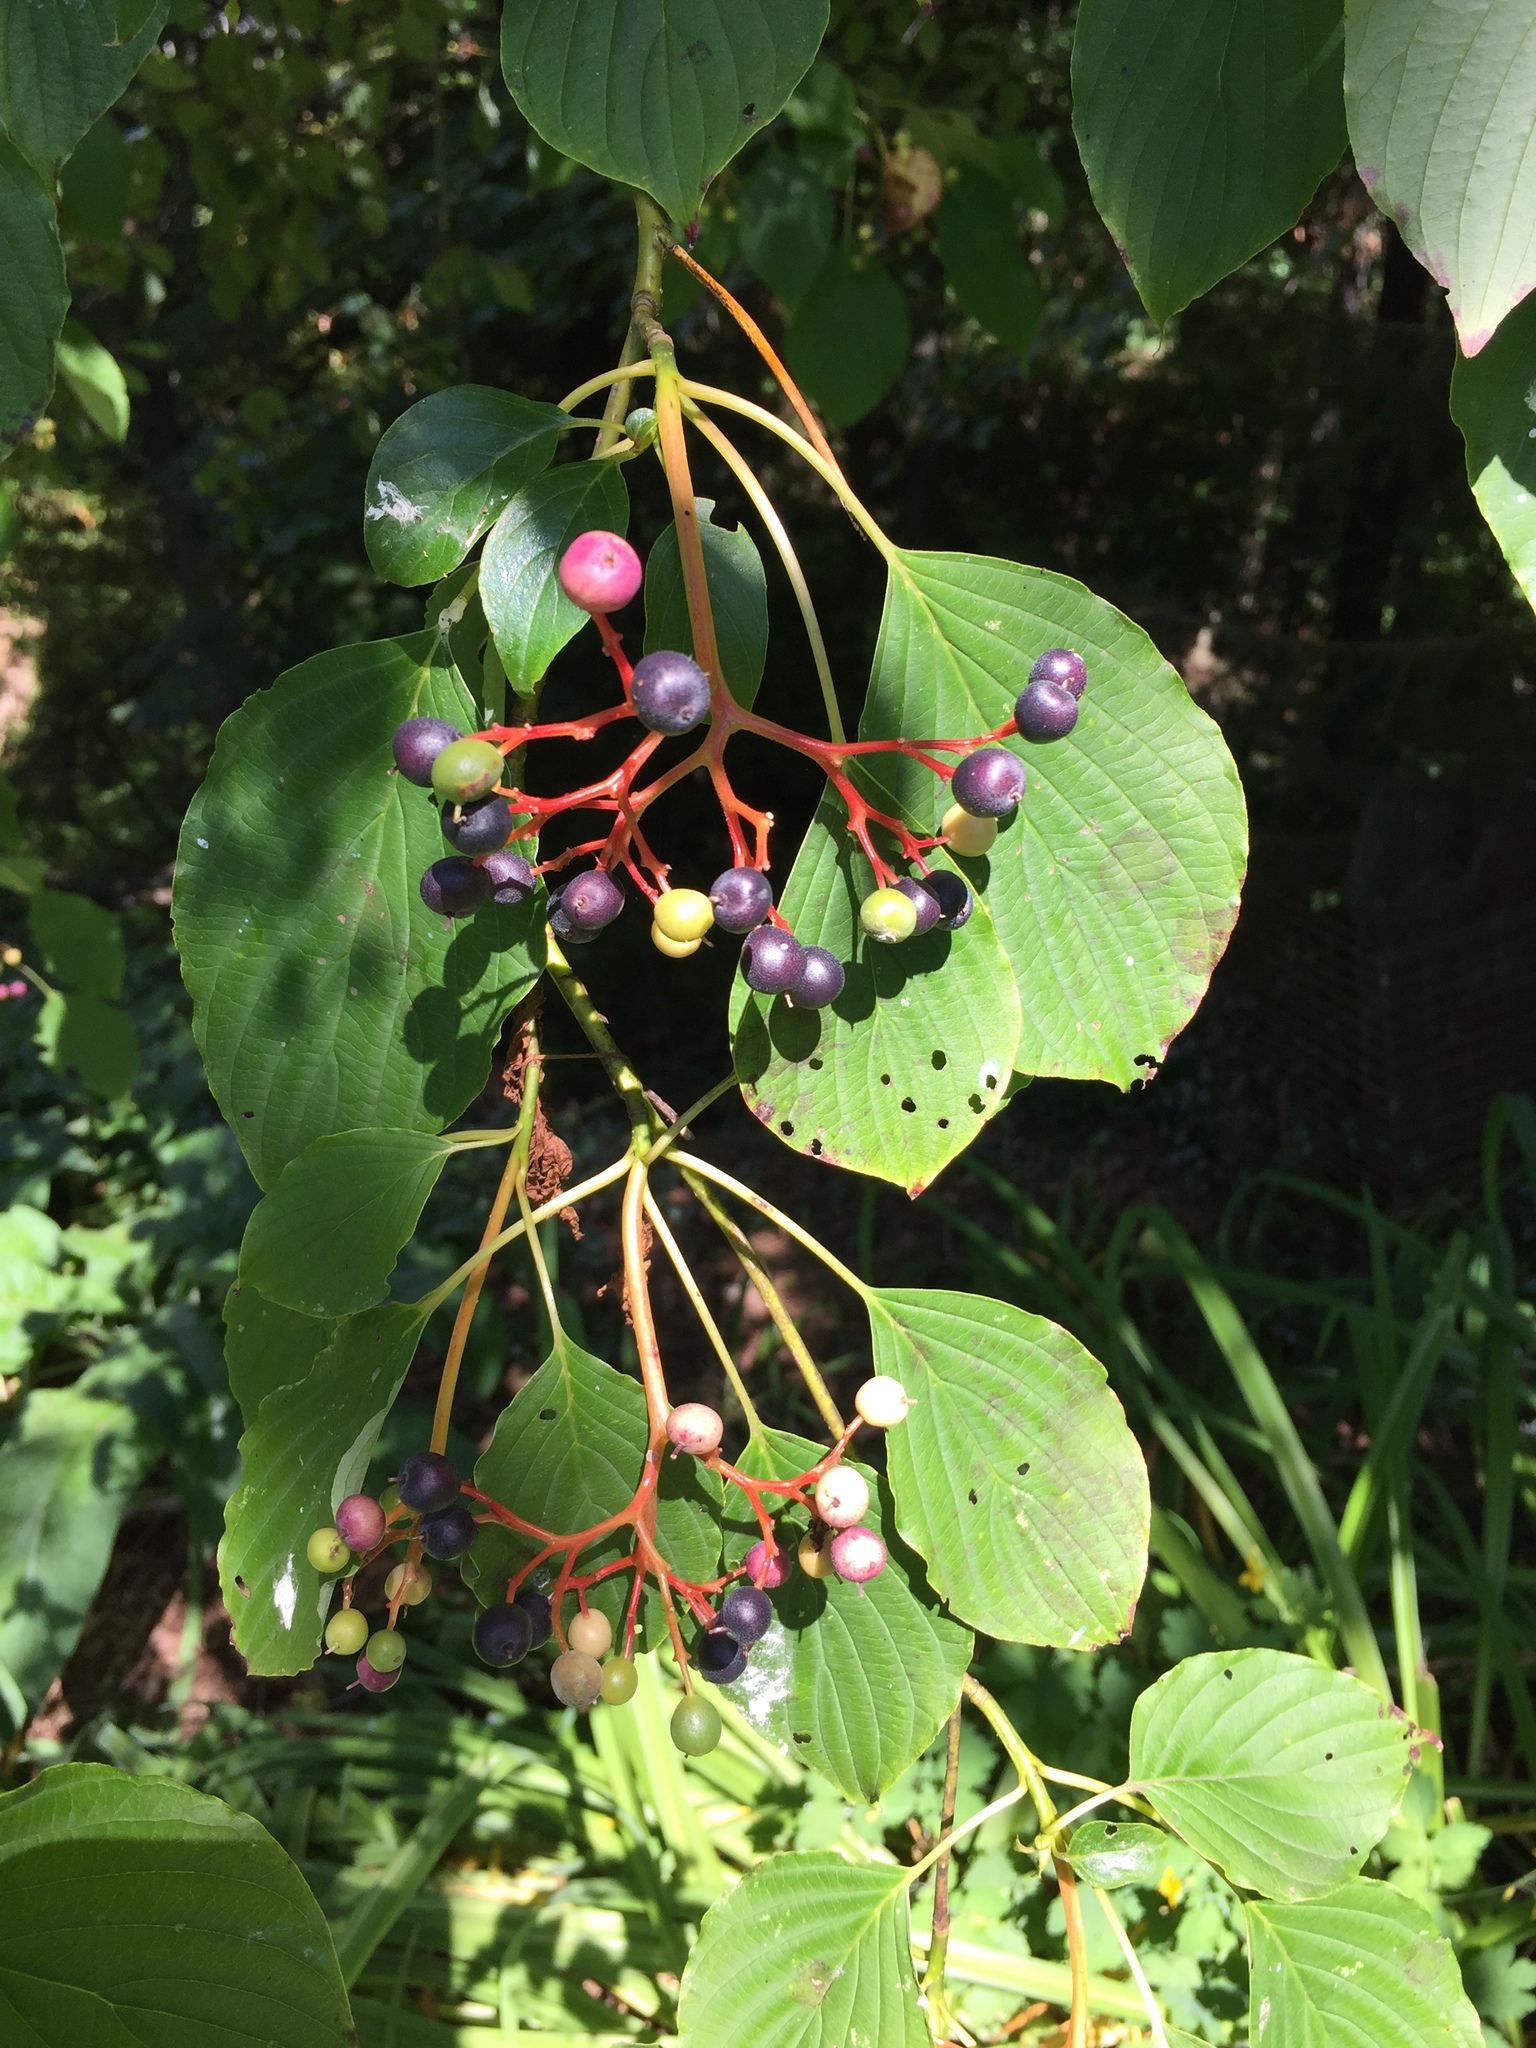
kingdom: Plantae
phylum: Tracheophyta
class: Magnoliopsida
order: Cornales
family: Cornaceae
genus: Cornus
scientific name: Cornus alternifolia
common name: Pagoda dogwood
